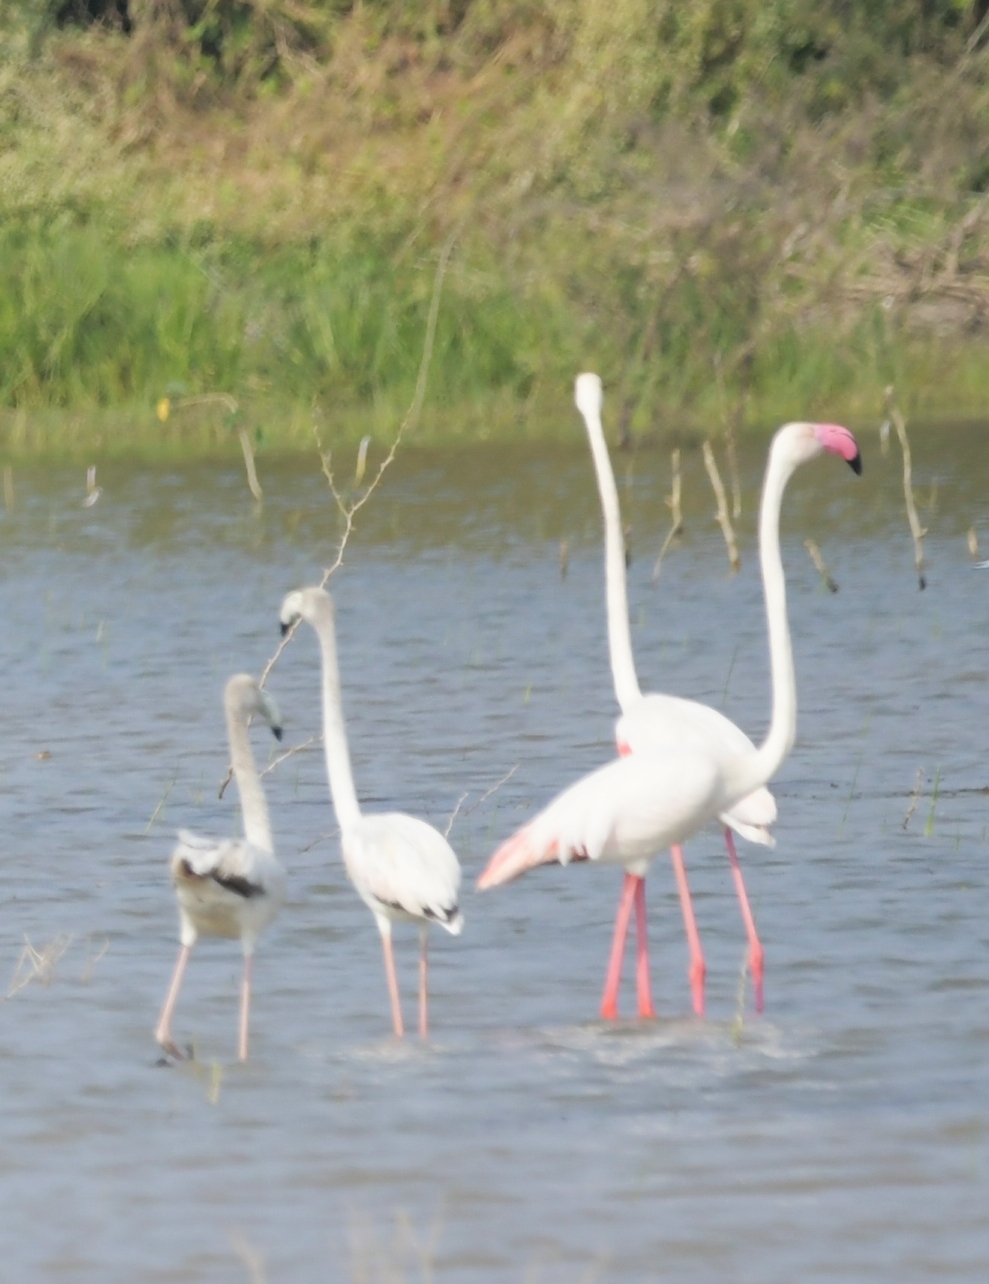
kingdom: Animalia
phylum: Chordata
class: Aves
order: Phoenicopteriformes
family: Phoenicopteridae
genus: Phoenicopterus
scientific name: Phoenicopterus roseus
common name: Greater flamingo
